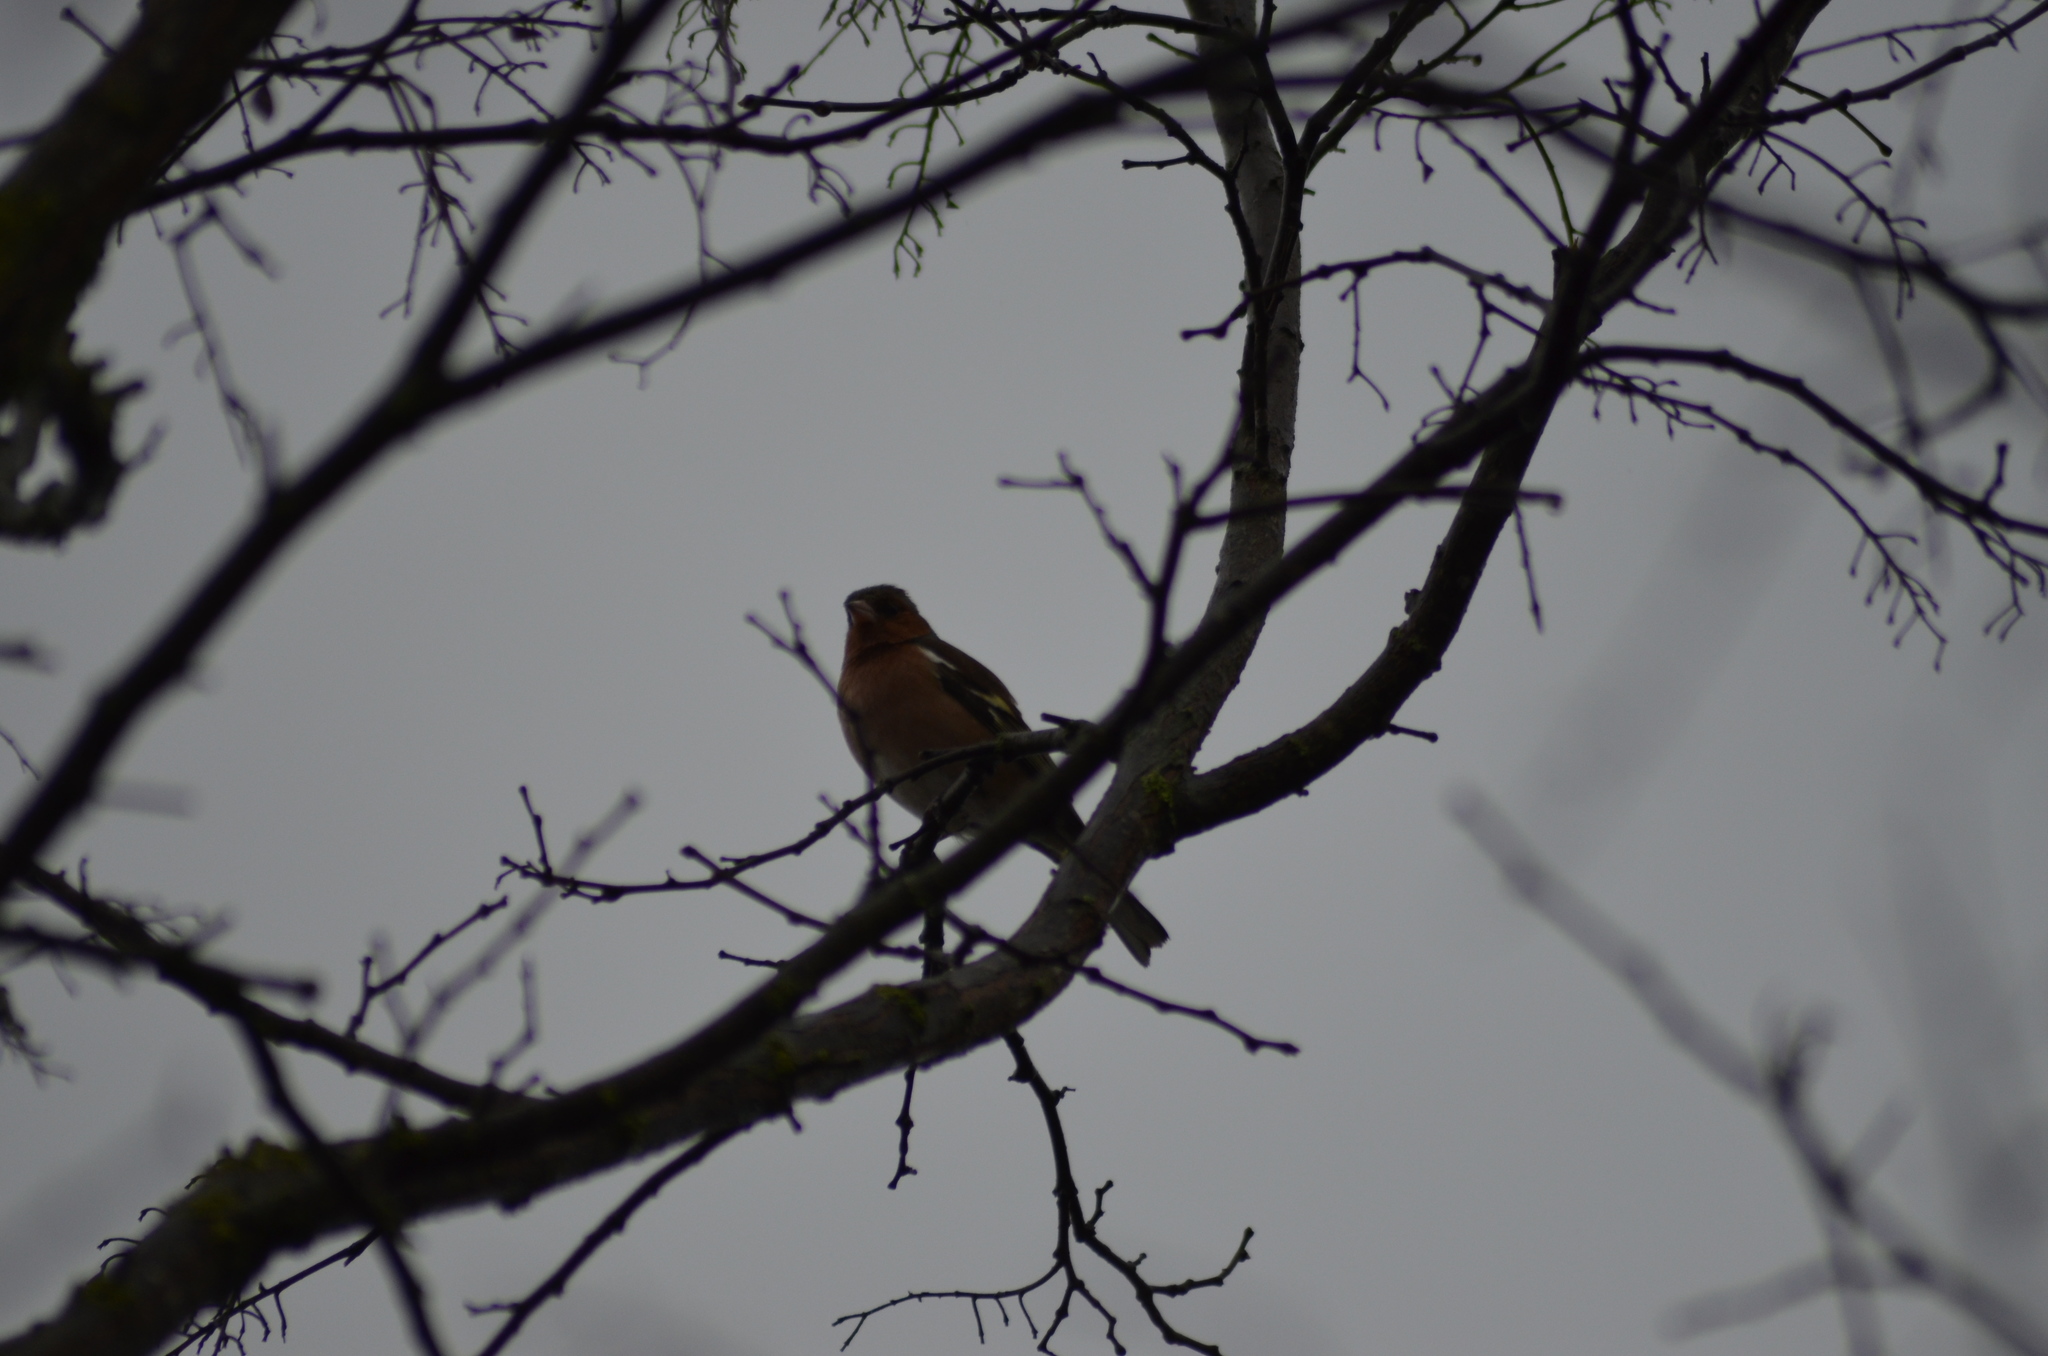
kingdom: Animalia
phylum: Chordata
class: Aves
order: Passeriformes
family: Fringillidae
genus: Fringilla
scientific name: Fringilla coelebs
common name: Common chaffinch
